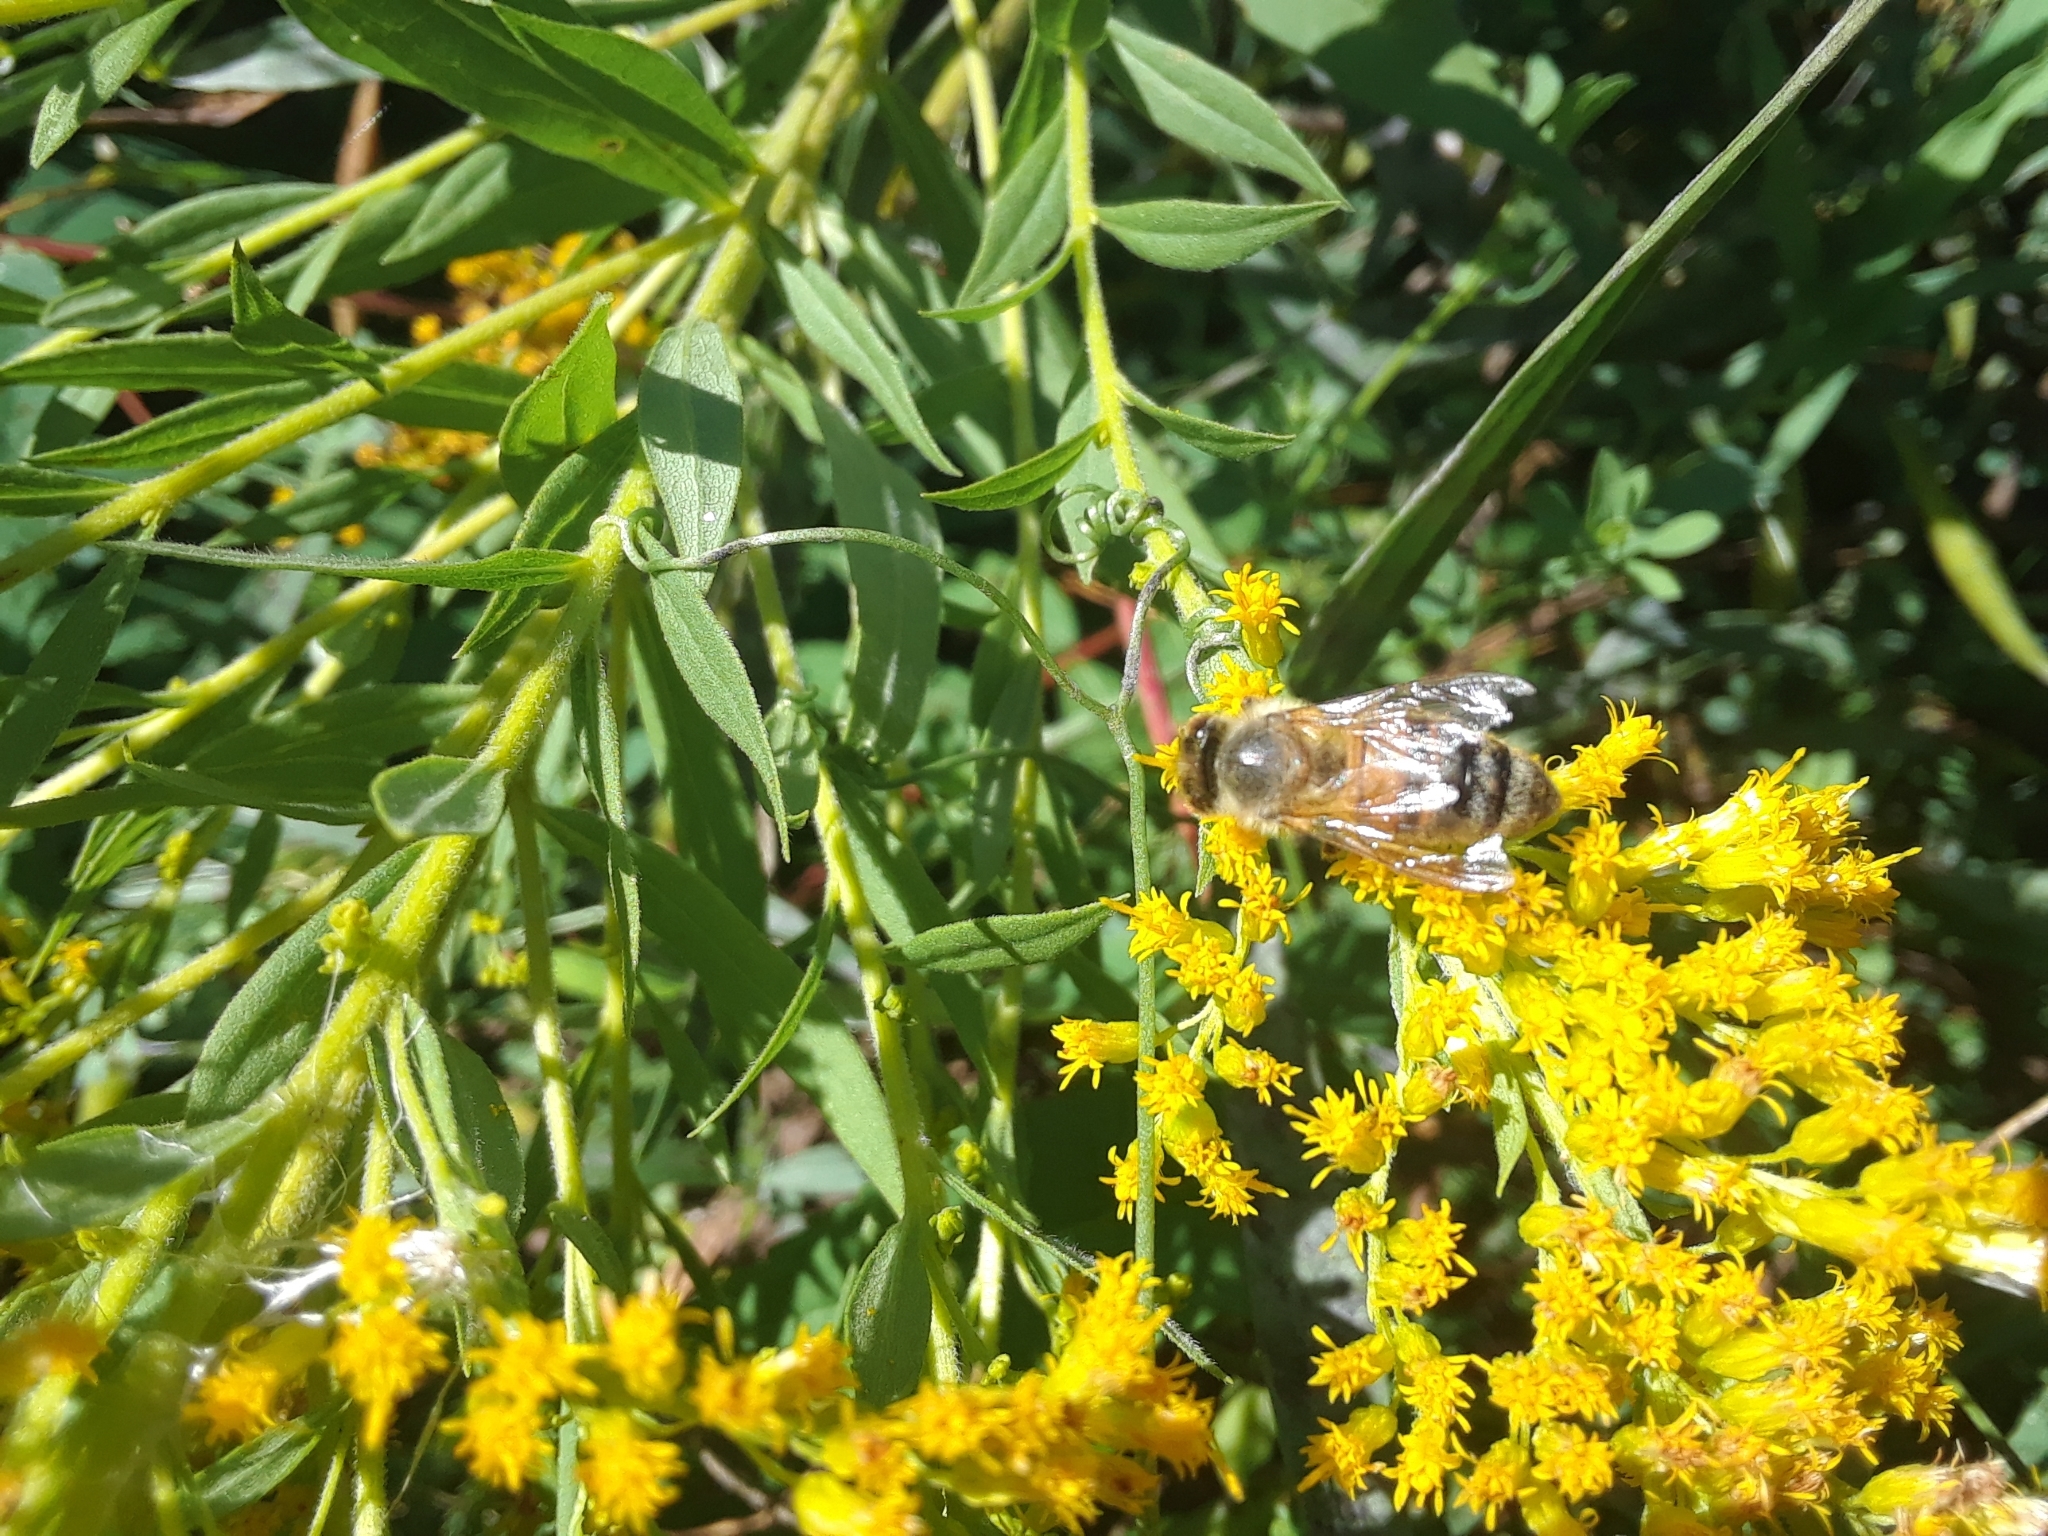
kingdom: Animalia
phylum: Arthropoda
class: Insecta
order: Hymenoptera
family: Apidae
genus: Apis
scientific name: Apis mellifera
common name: Honey bee
